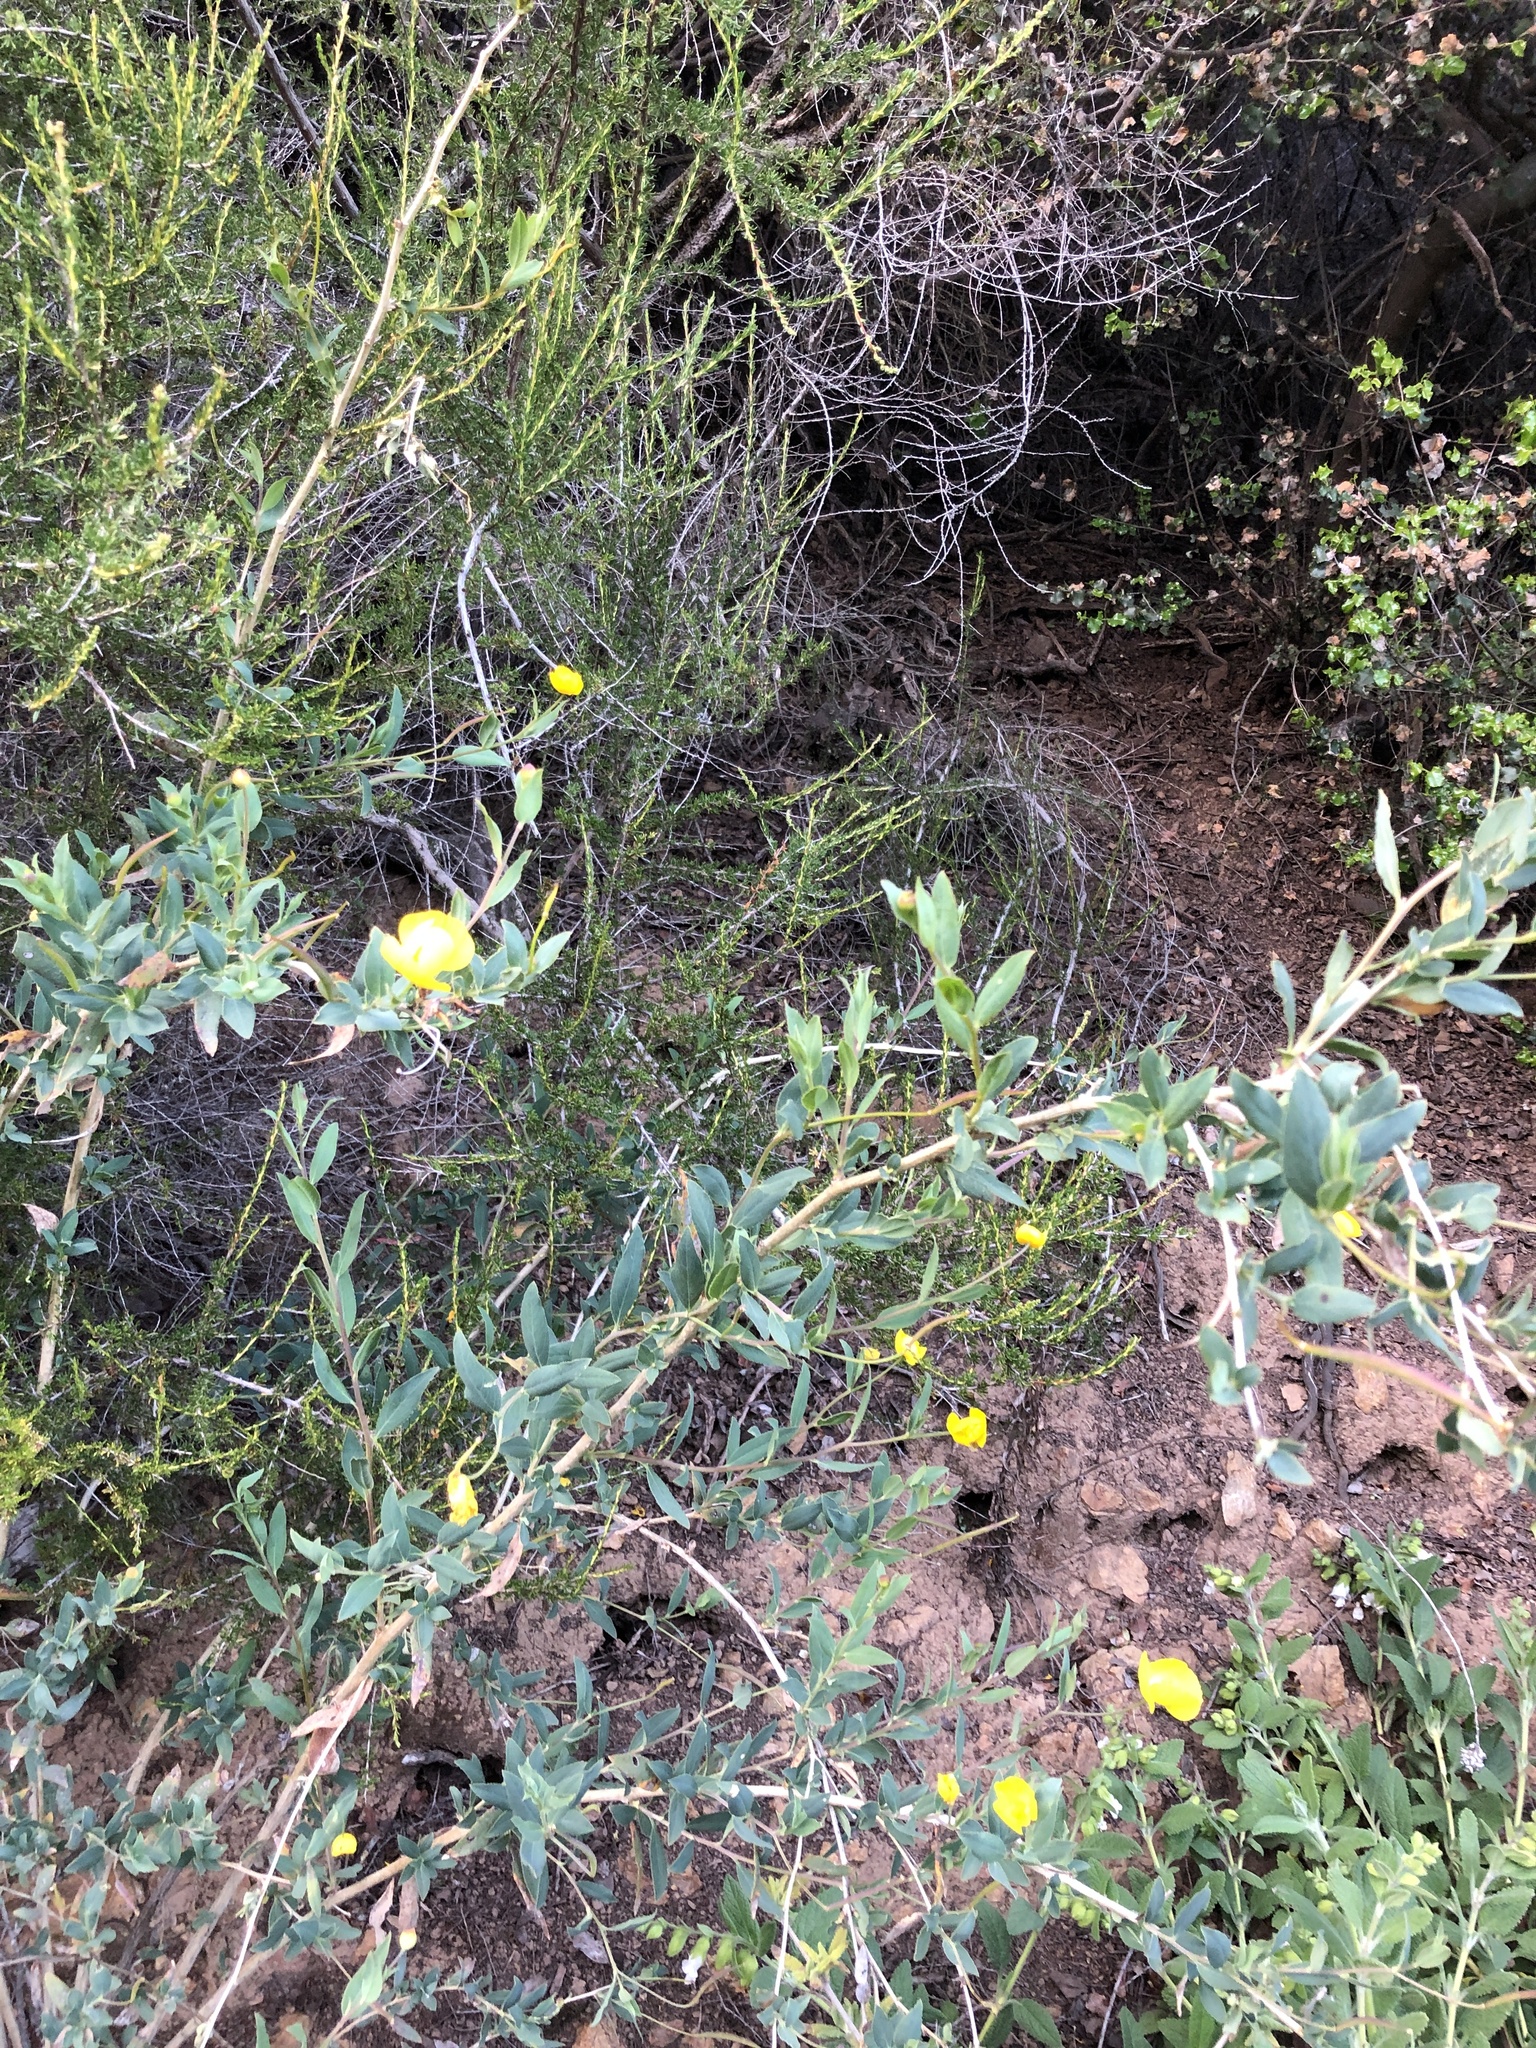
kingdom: Plantae
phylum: Tracheophyta
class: Magnoliopsida
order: Ranunculales
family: Papaveraceae
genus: Dendromecon
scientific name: Dendromecon rigida
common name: Tree poppy
